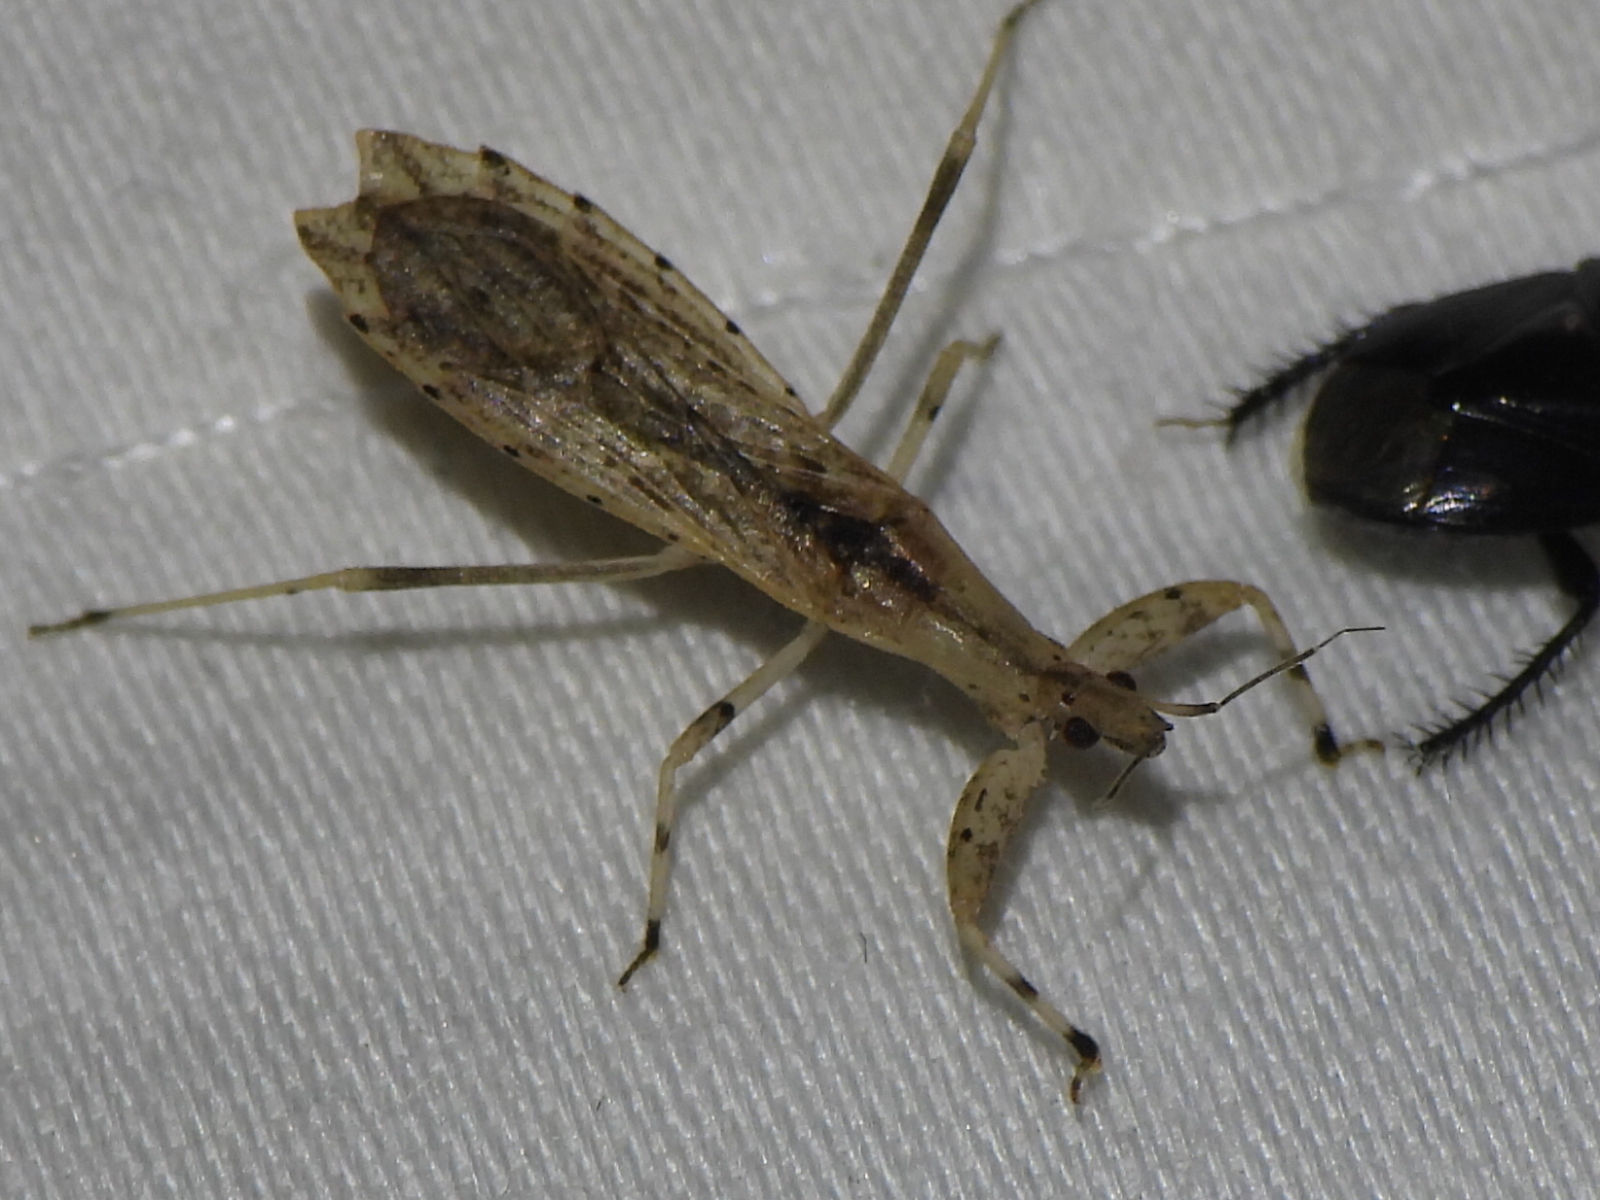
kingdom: Animalia
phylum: Arthropoda
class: Insecta
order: Hemiptera
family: Reduviidae
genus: Ctenotrachelus
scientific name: Ctenotrachelus shermani
